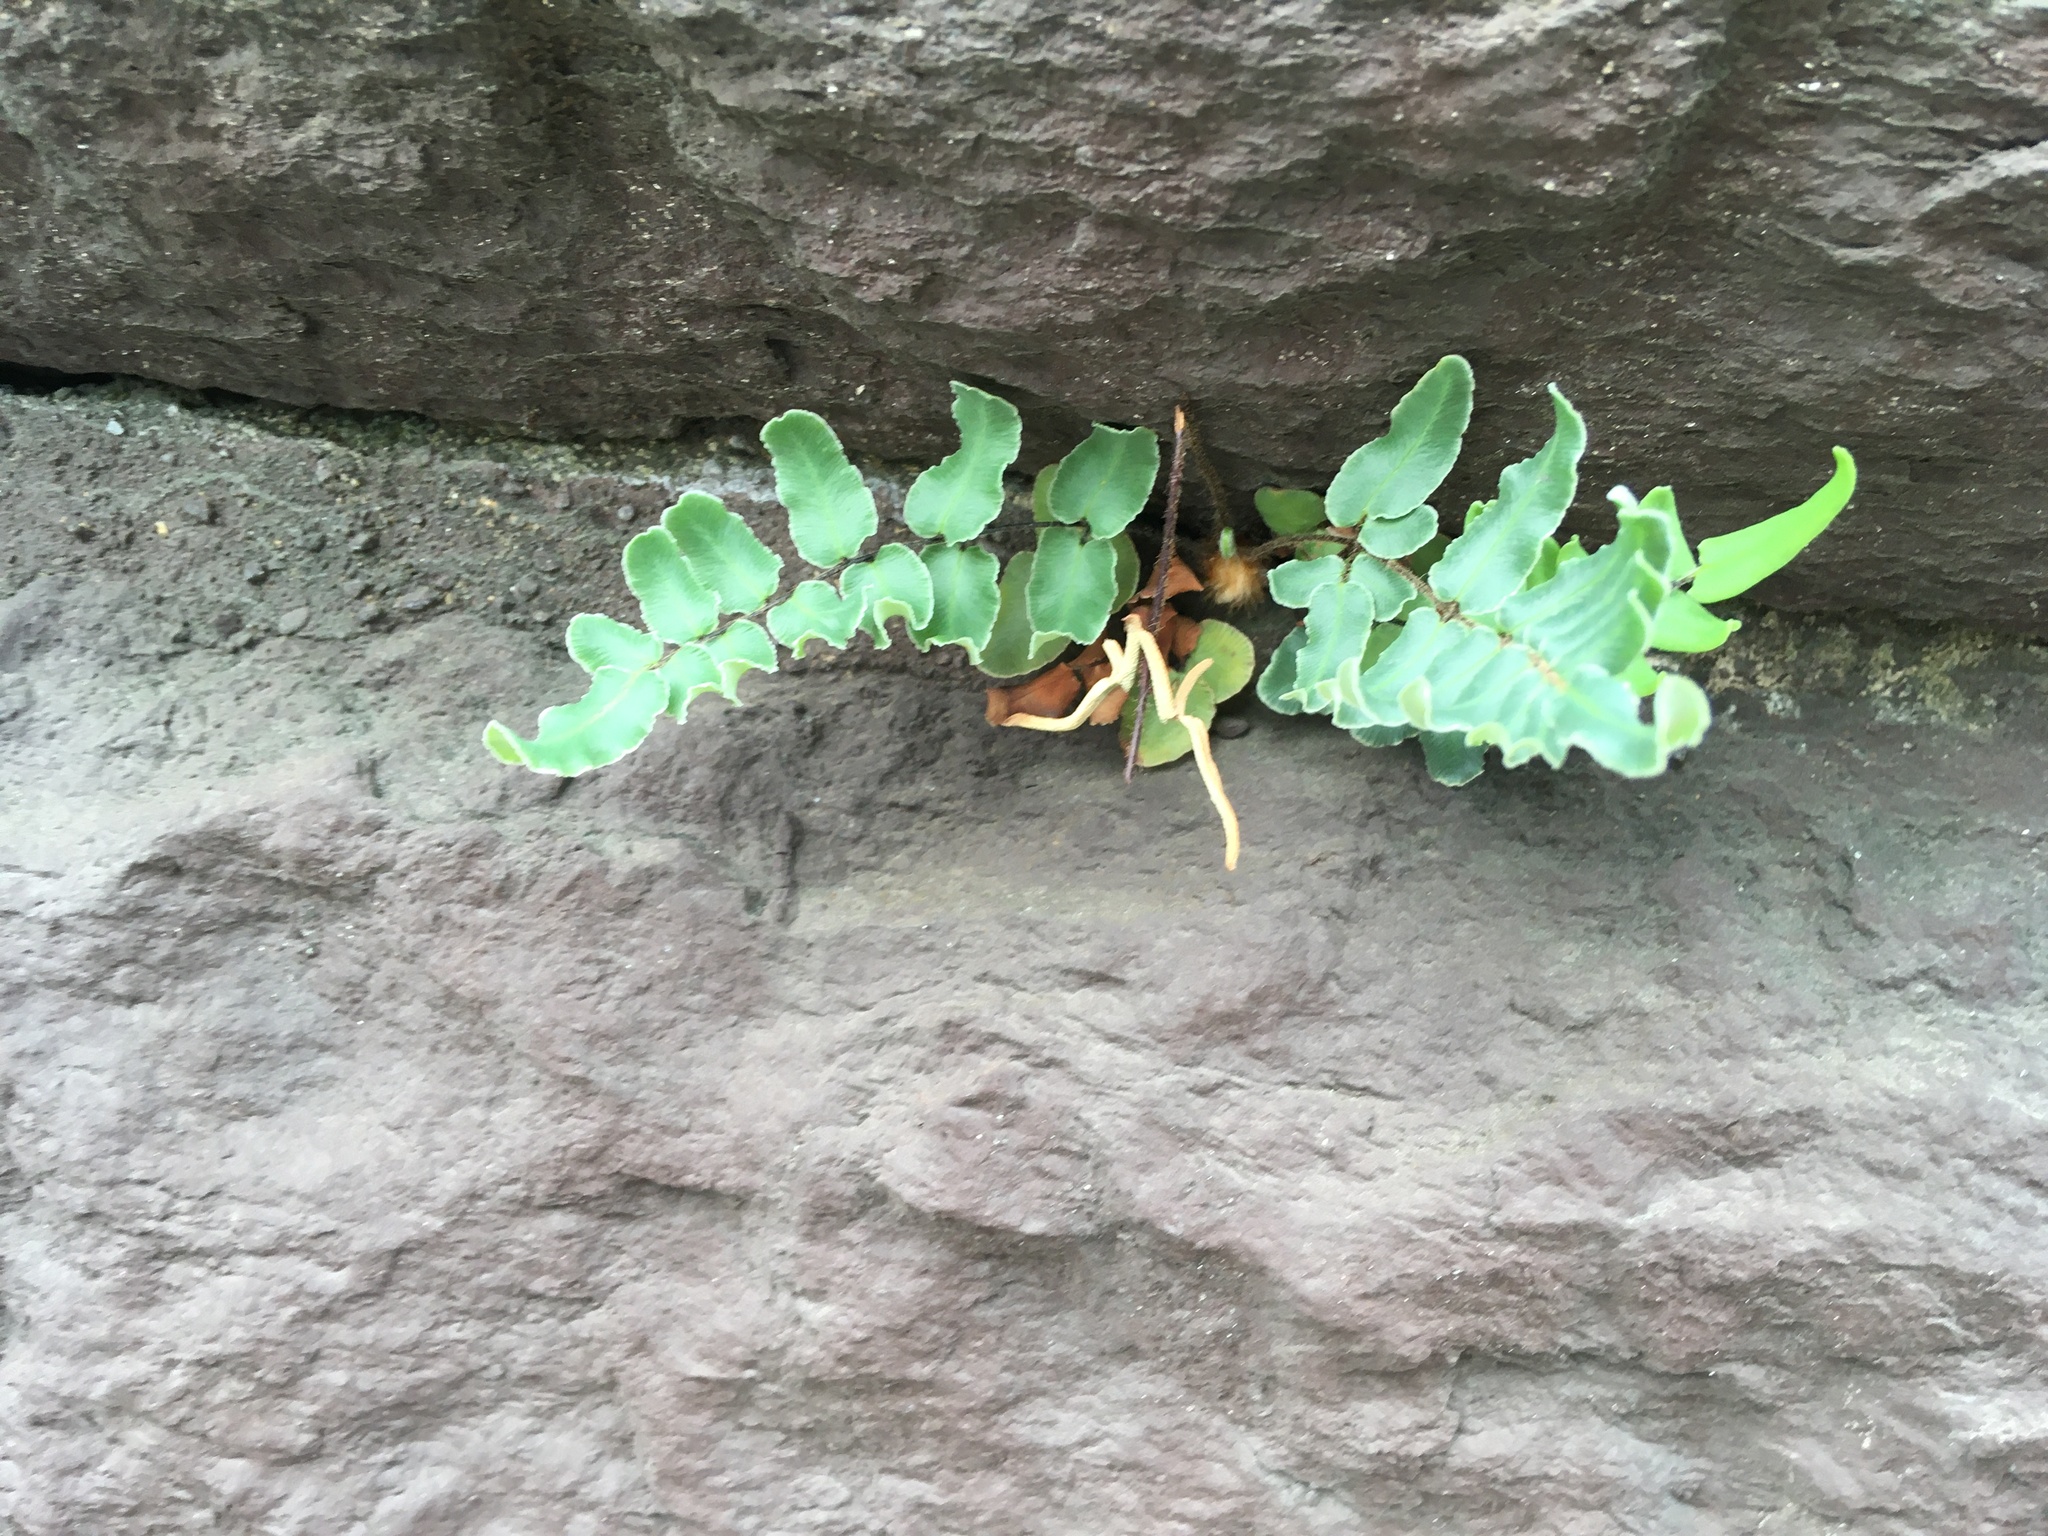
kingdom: Plantae
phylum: Tracheophyta
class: Polypodiopsida
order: Polypodiales
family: Pteridaceae
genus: Pellaea
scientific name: Pellaea atropurpurea
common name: Hairy cliffbrake
